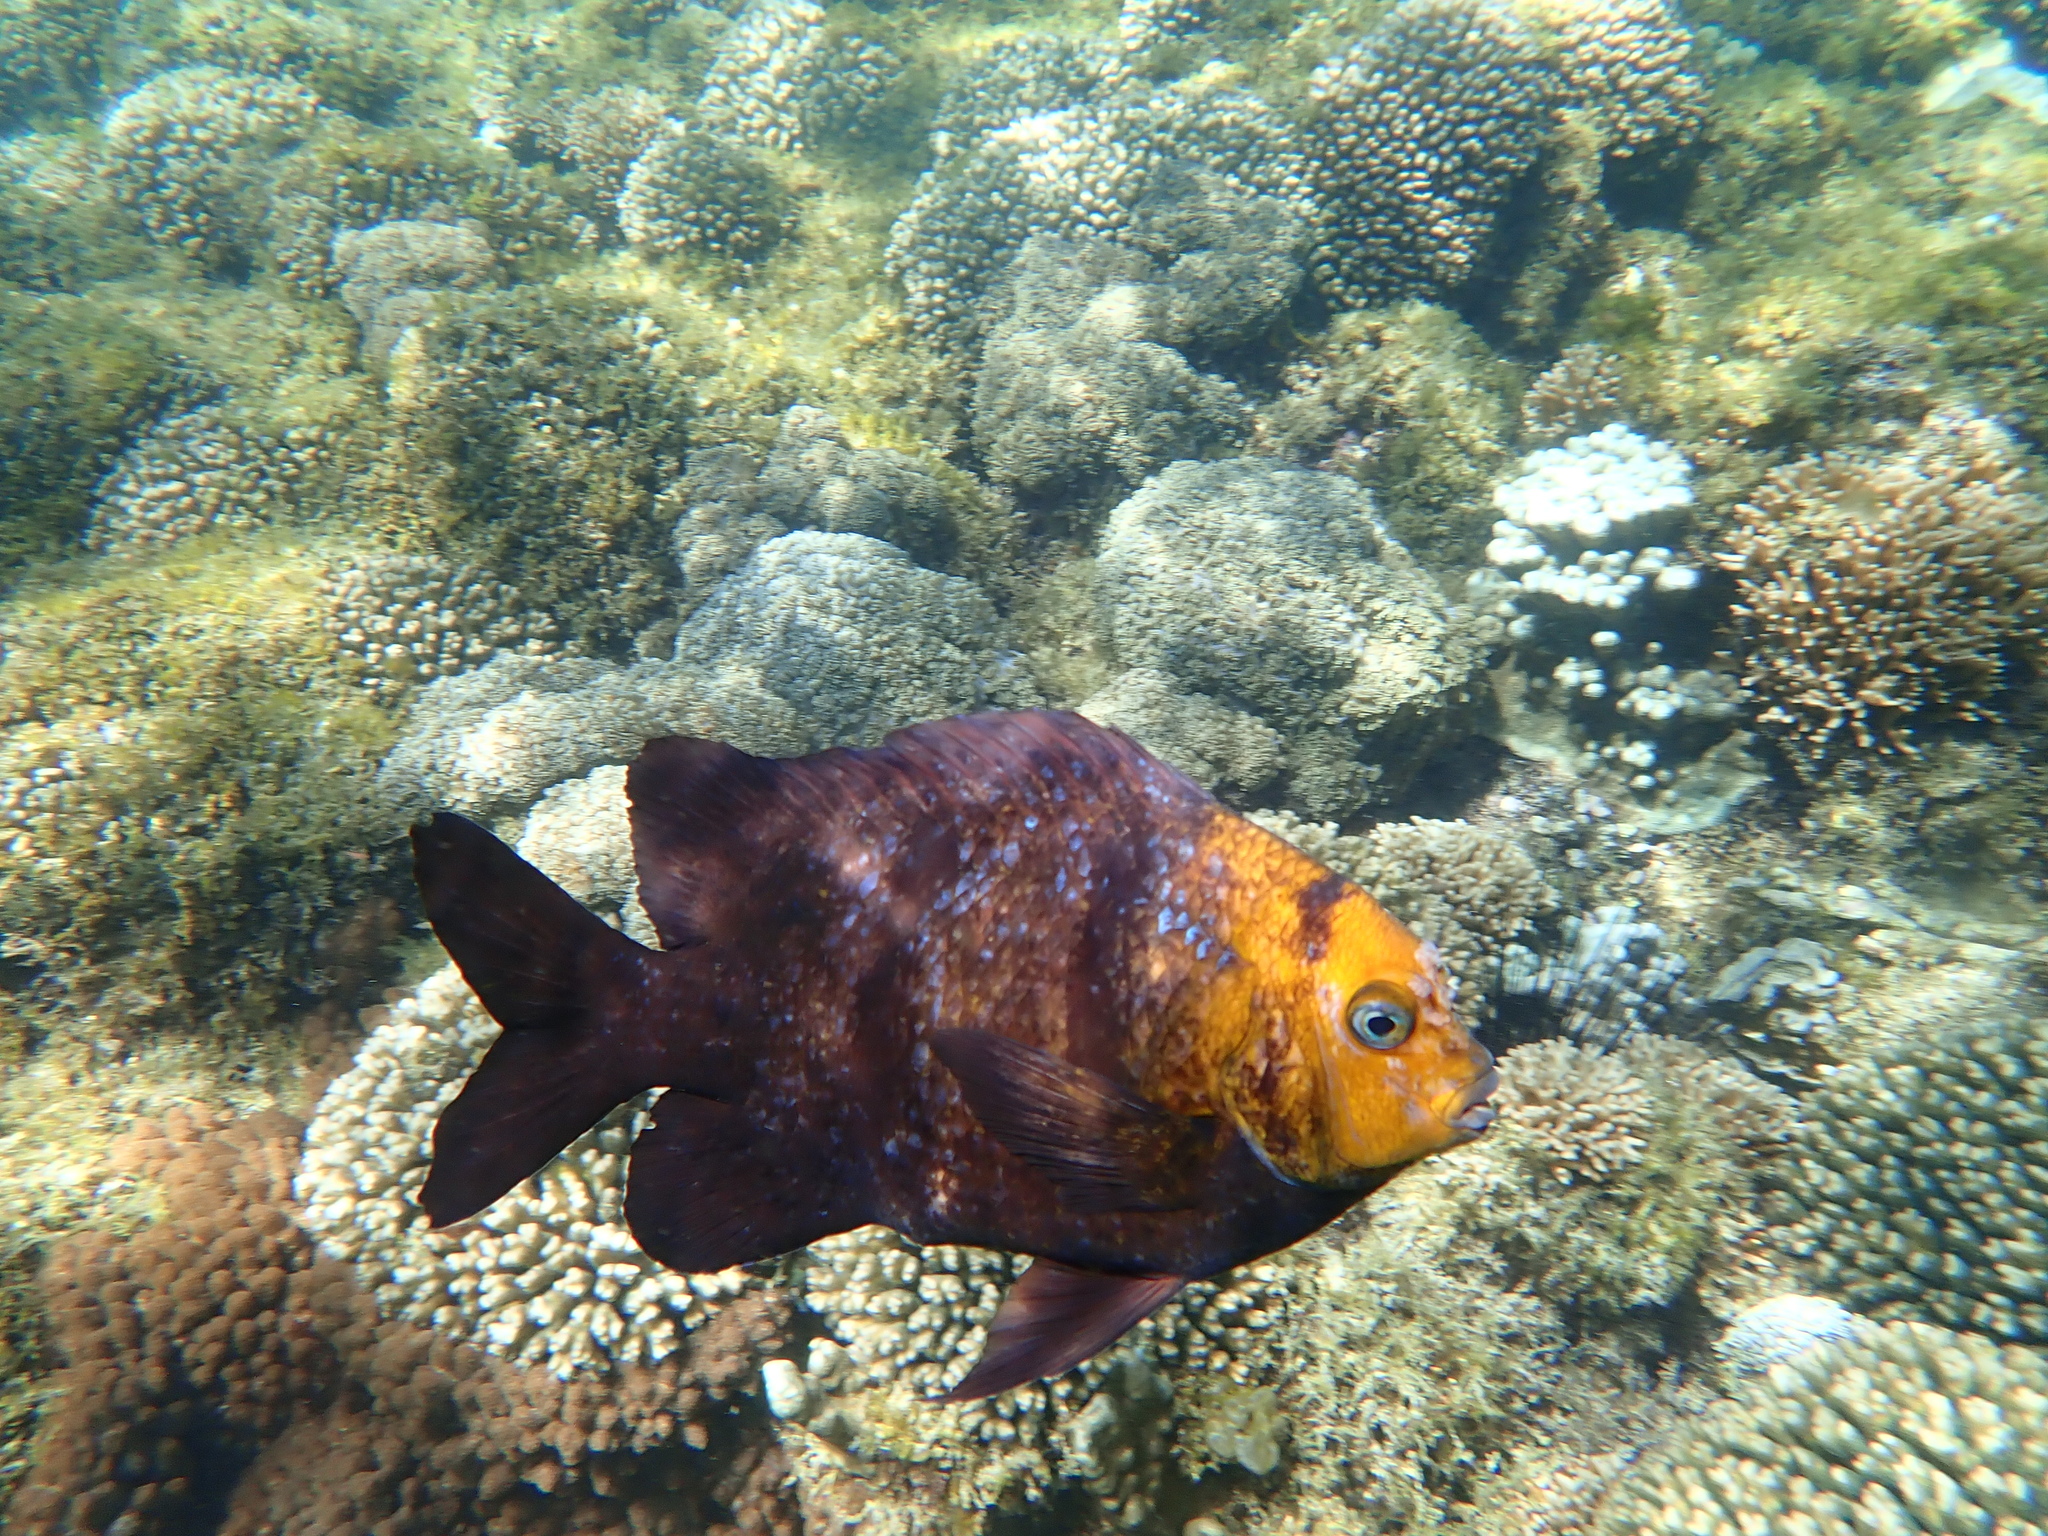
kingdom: Animalia
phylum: Chordata
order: Perciformes
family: Pomacentridae
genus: Parma
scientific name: Parma polylepis
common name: Banded parma
